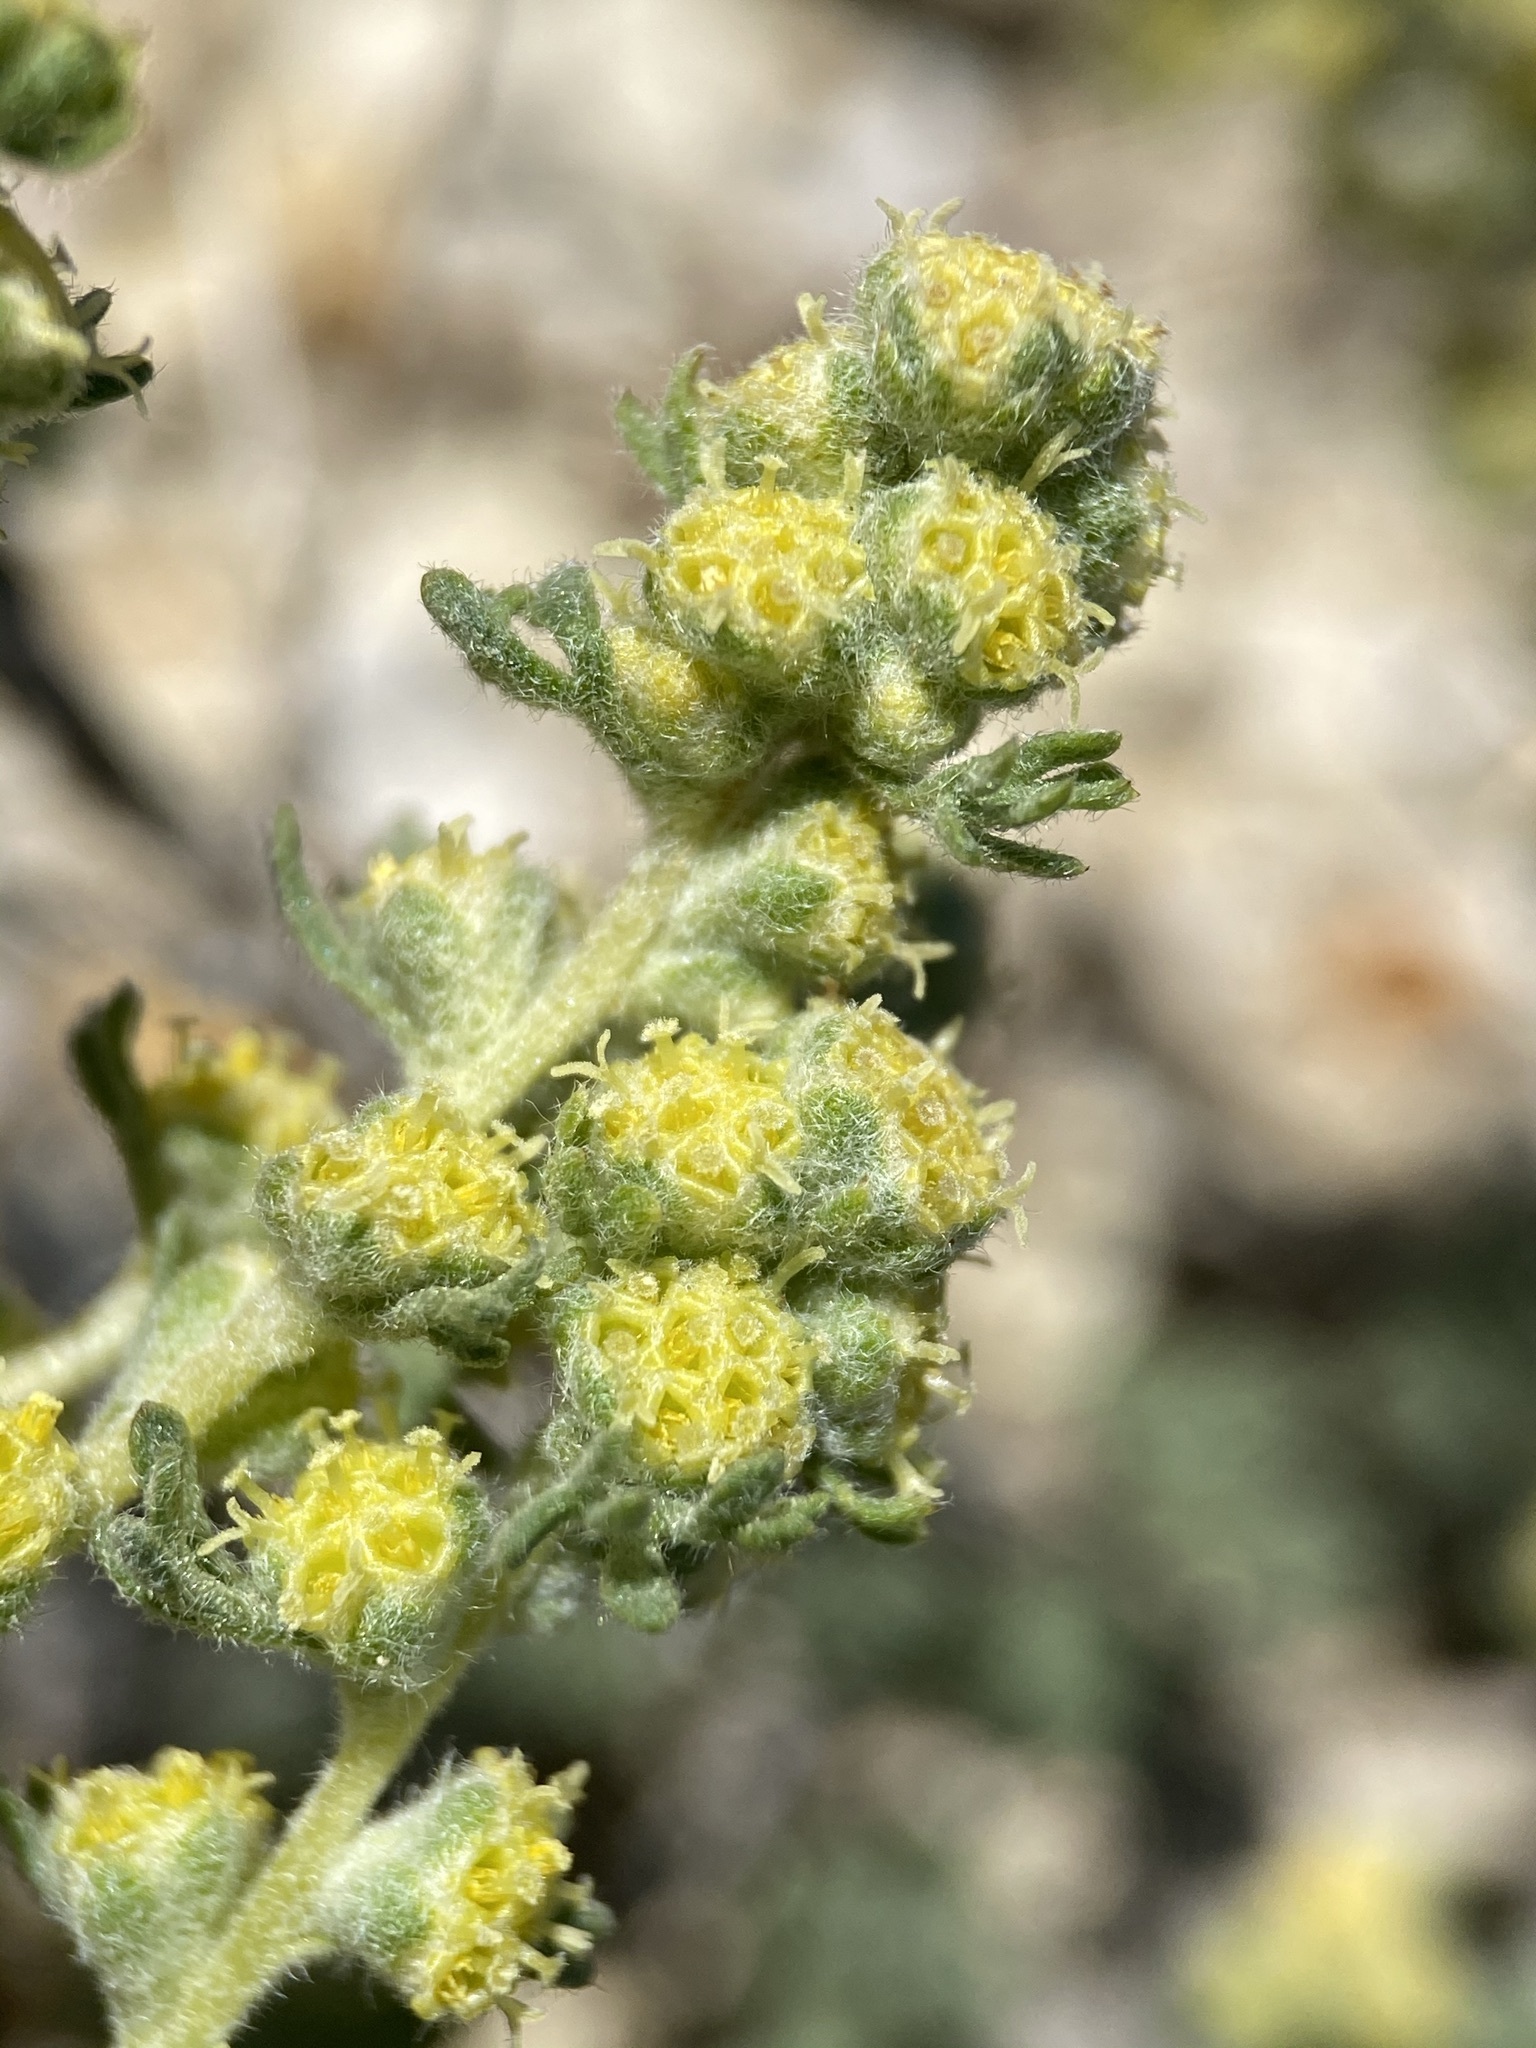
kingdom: Plantae
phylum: Tracheophyta
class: Magnoliopsida
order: Asterales
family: Asteraceae
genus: Artemisia
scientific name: Artemisia spinescens
